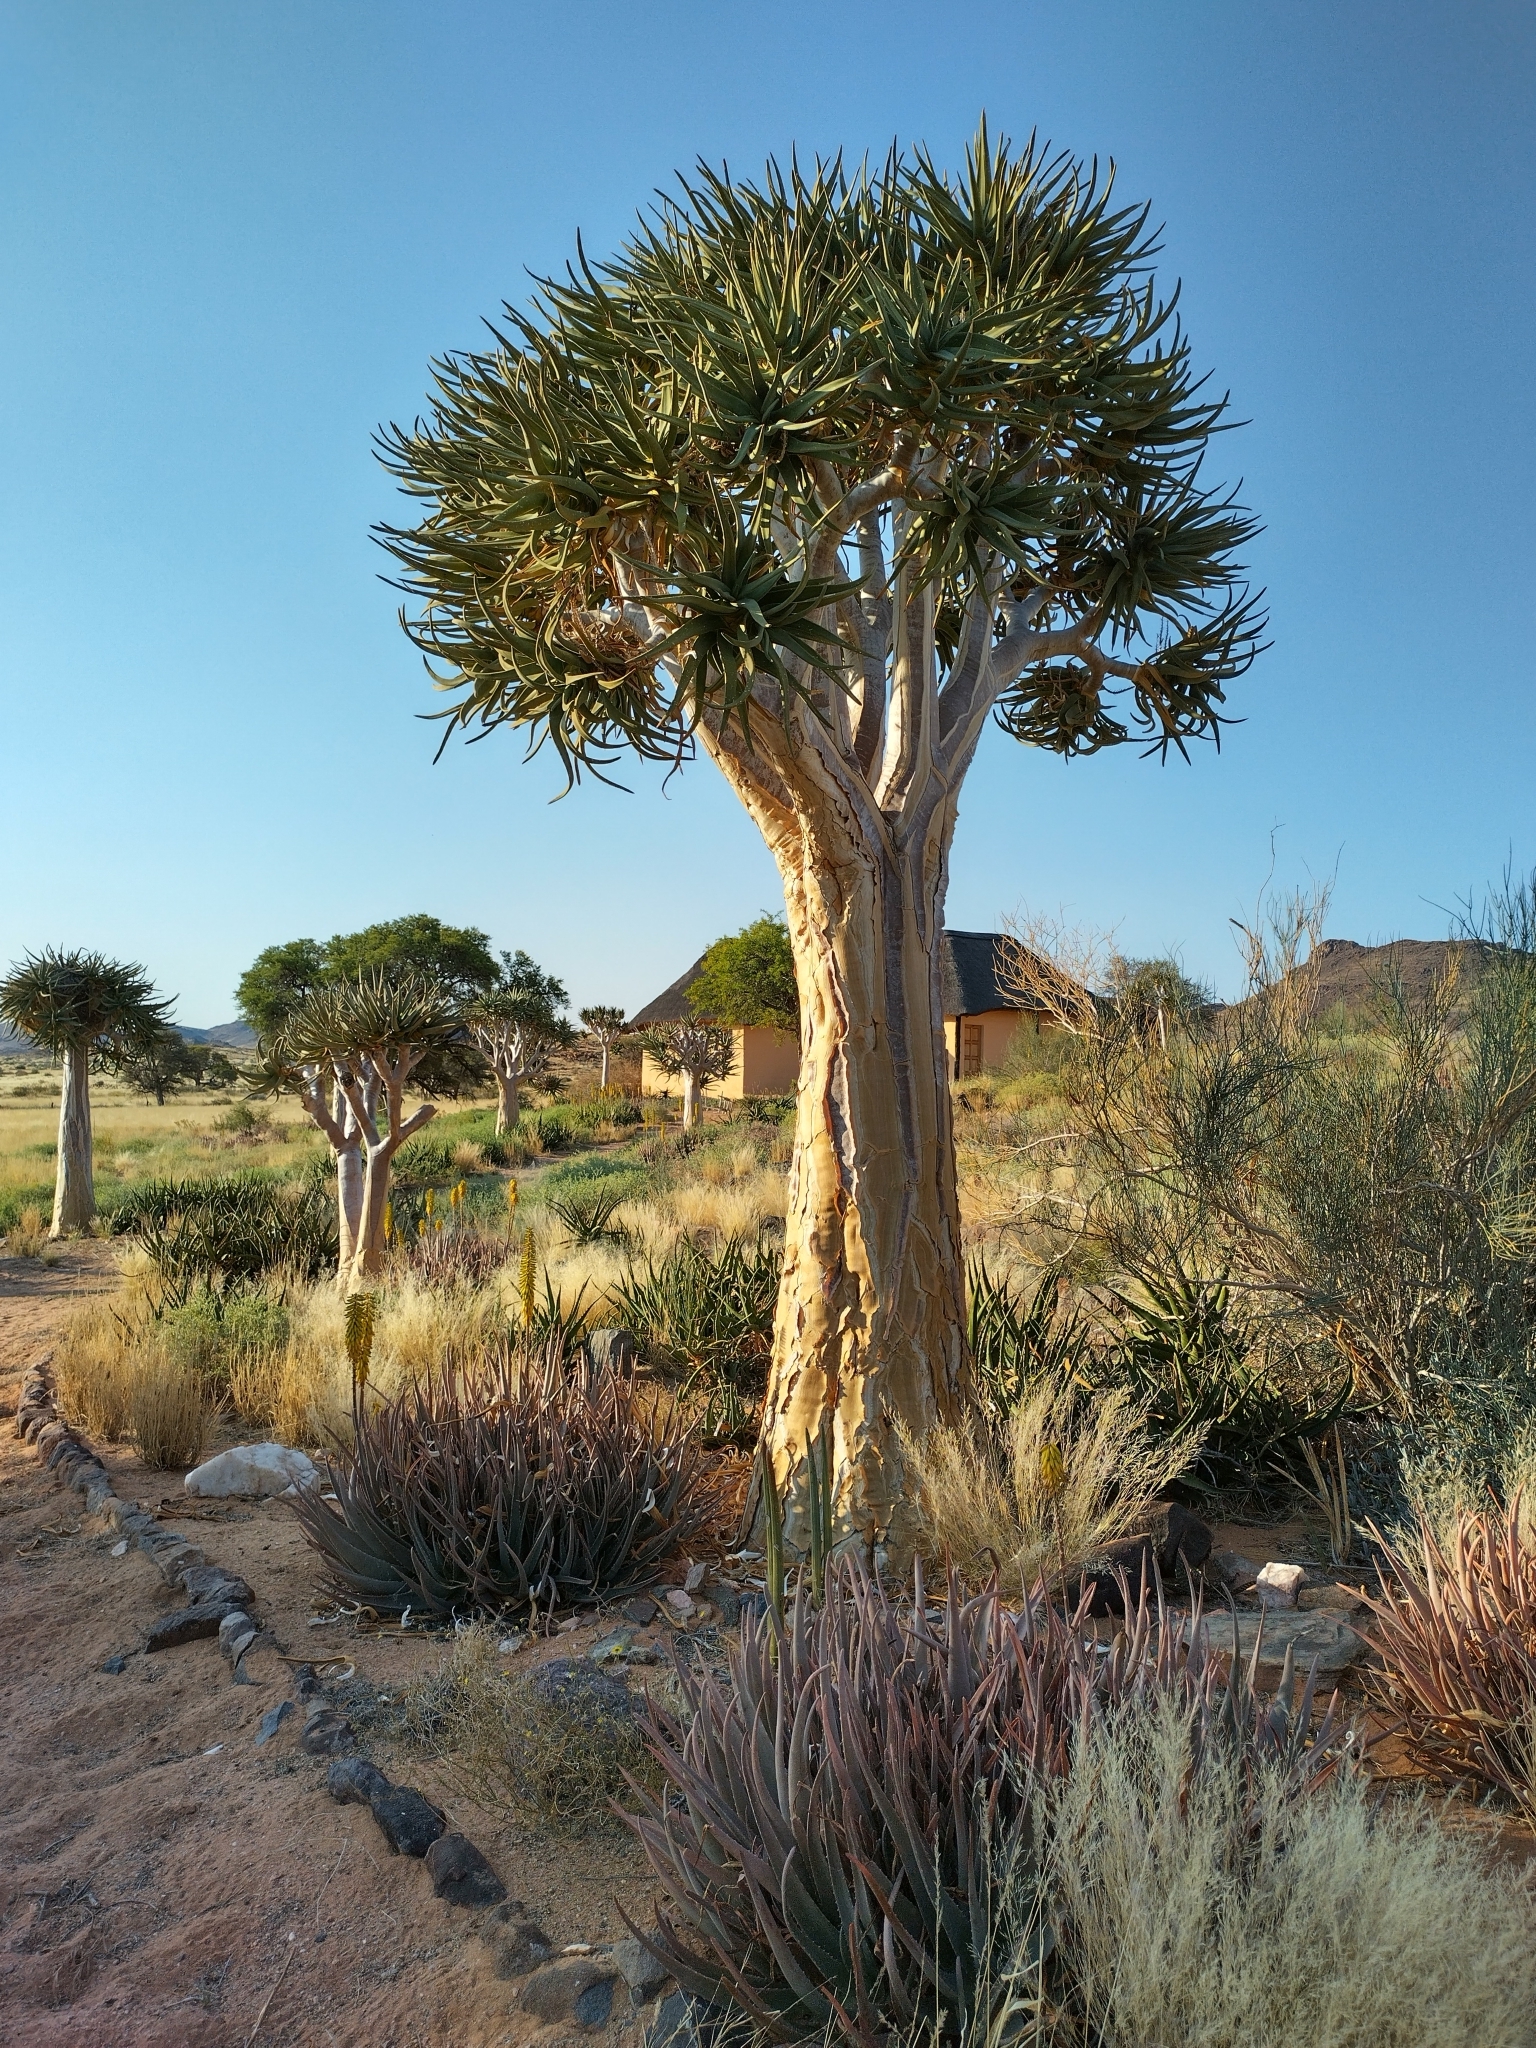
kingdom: Plantae
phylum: Tracheophyta
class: Liliopsida
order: Asparagales
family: Asphodelaceae
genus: Aloidendron
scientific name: Aloidendron dichotomum
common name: Quiver tree
